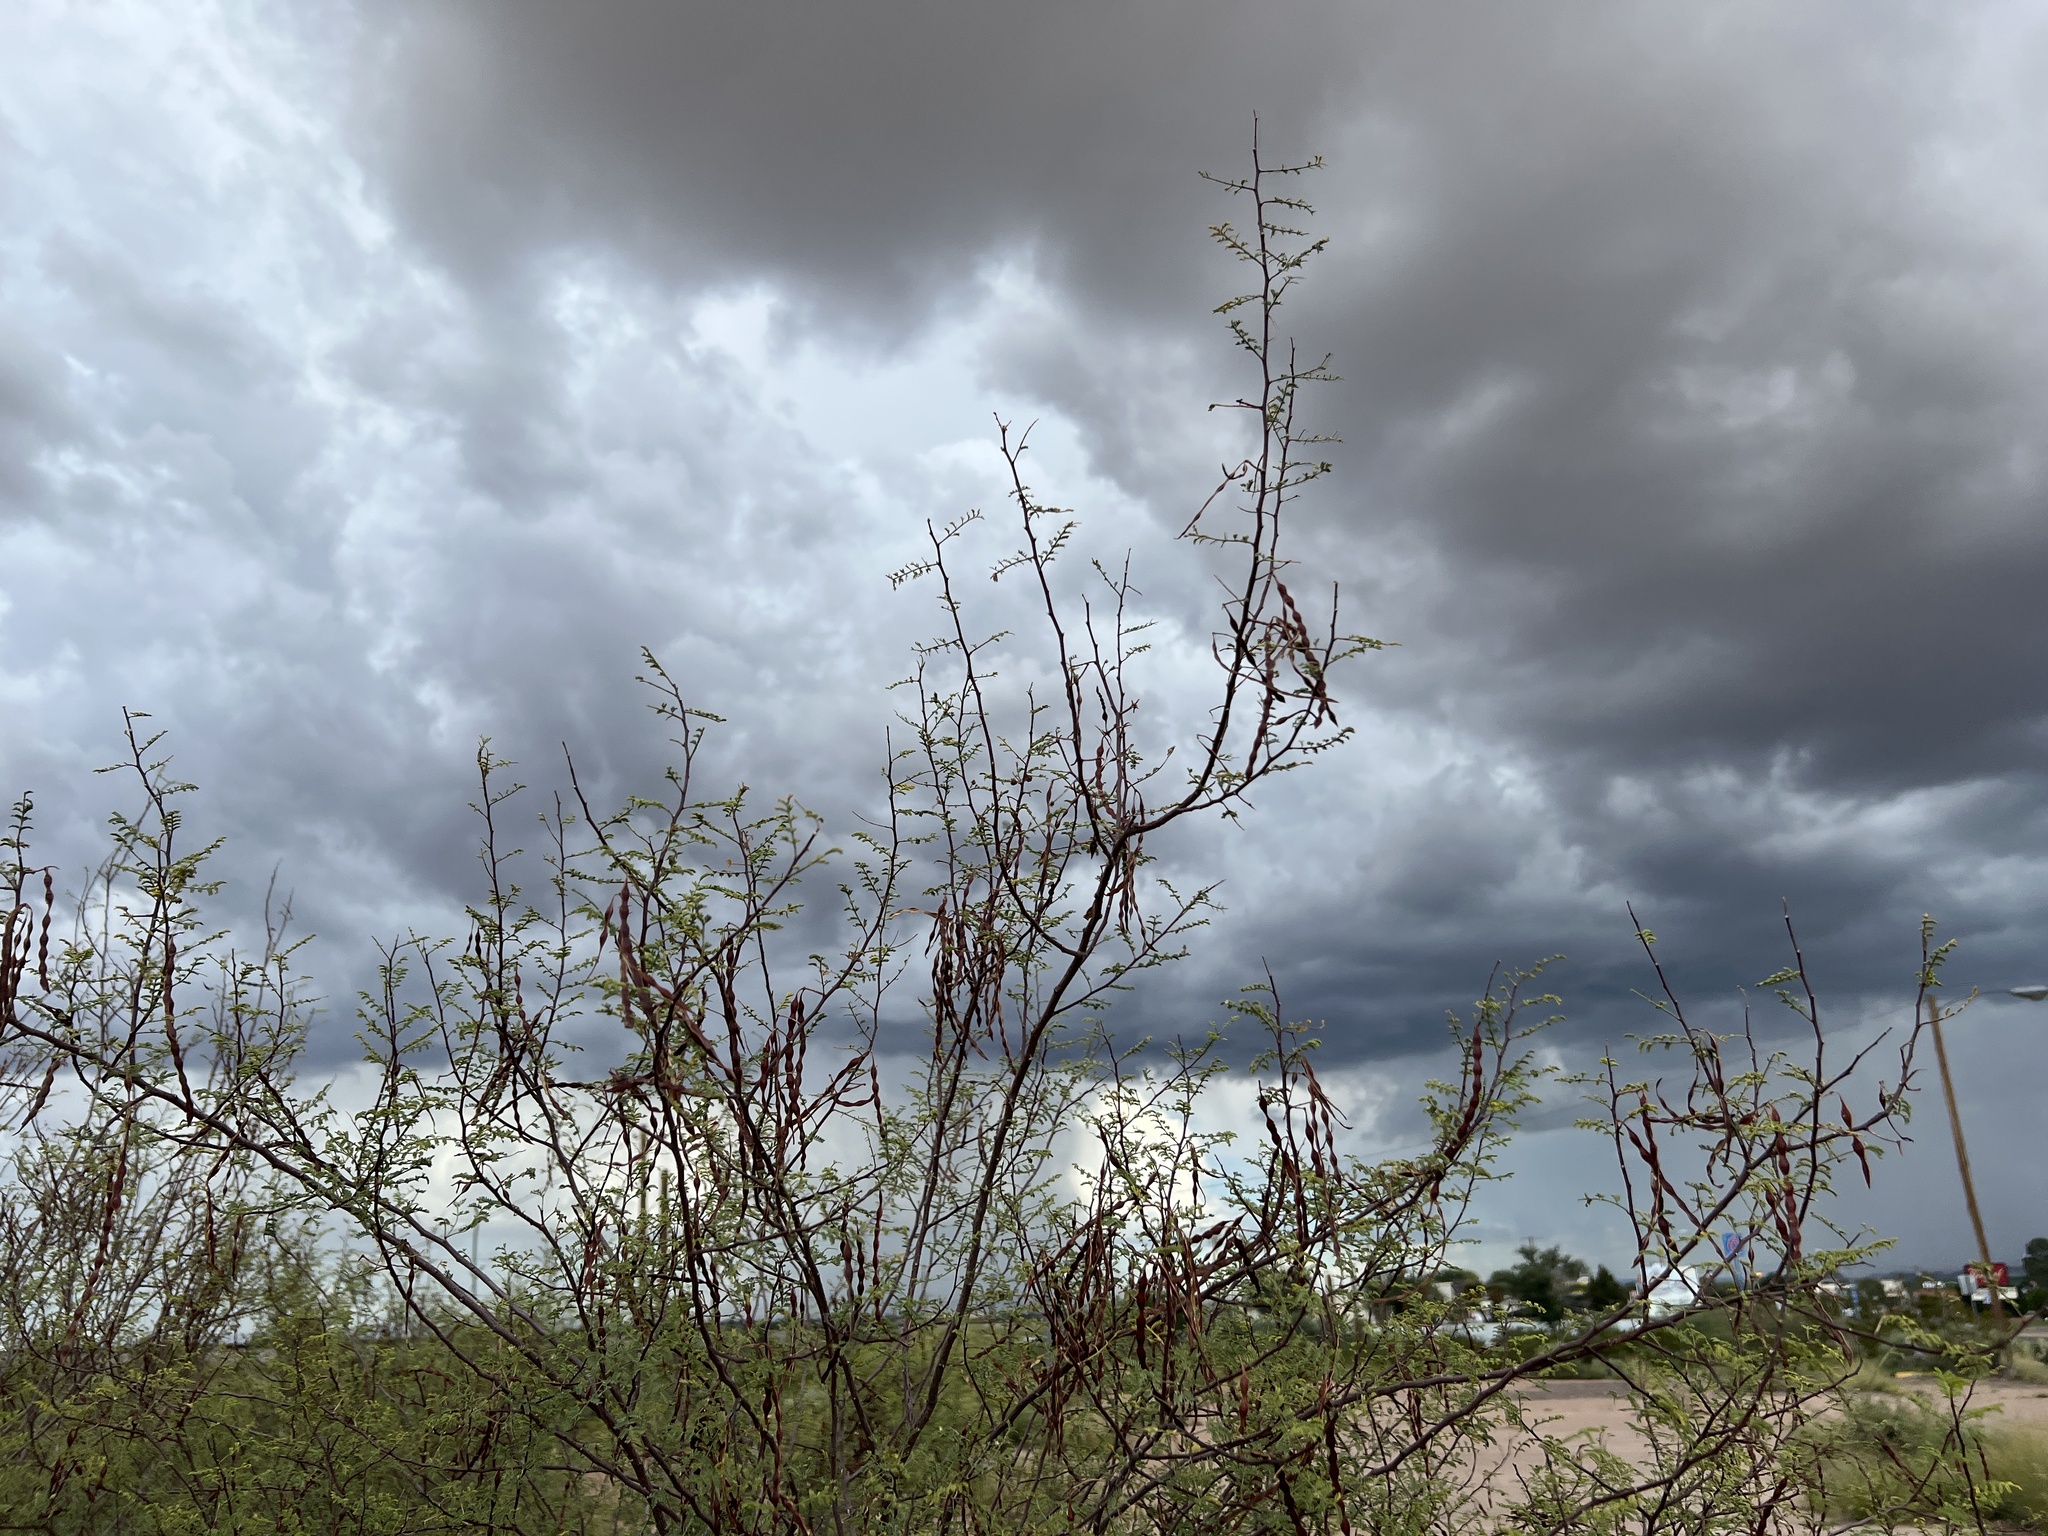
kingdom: Plantae
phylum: Tracheophyta
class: Magnoliopsida
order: Fabales
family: Fabaceae
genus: Vachellia
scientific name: Vachellia vernicosa
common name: Viscid acacia
